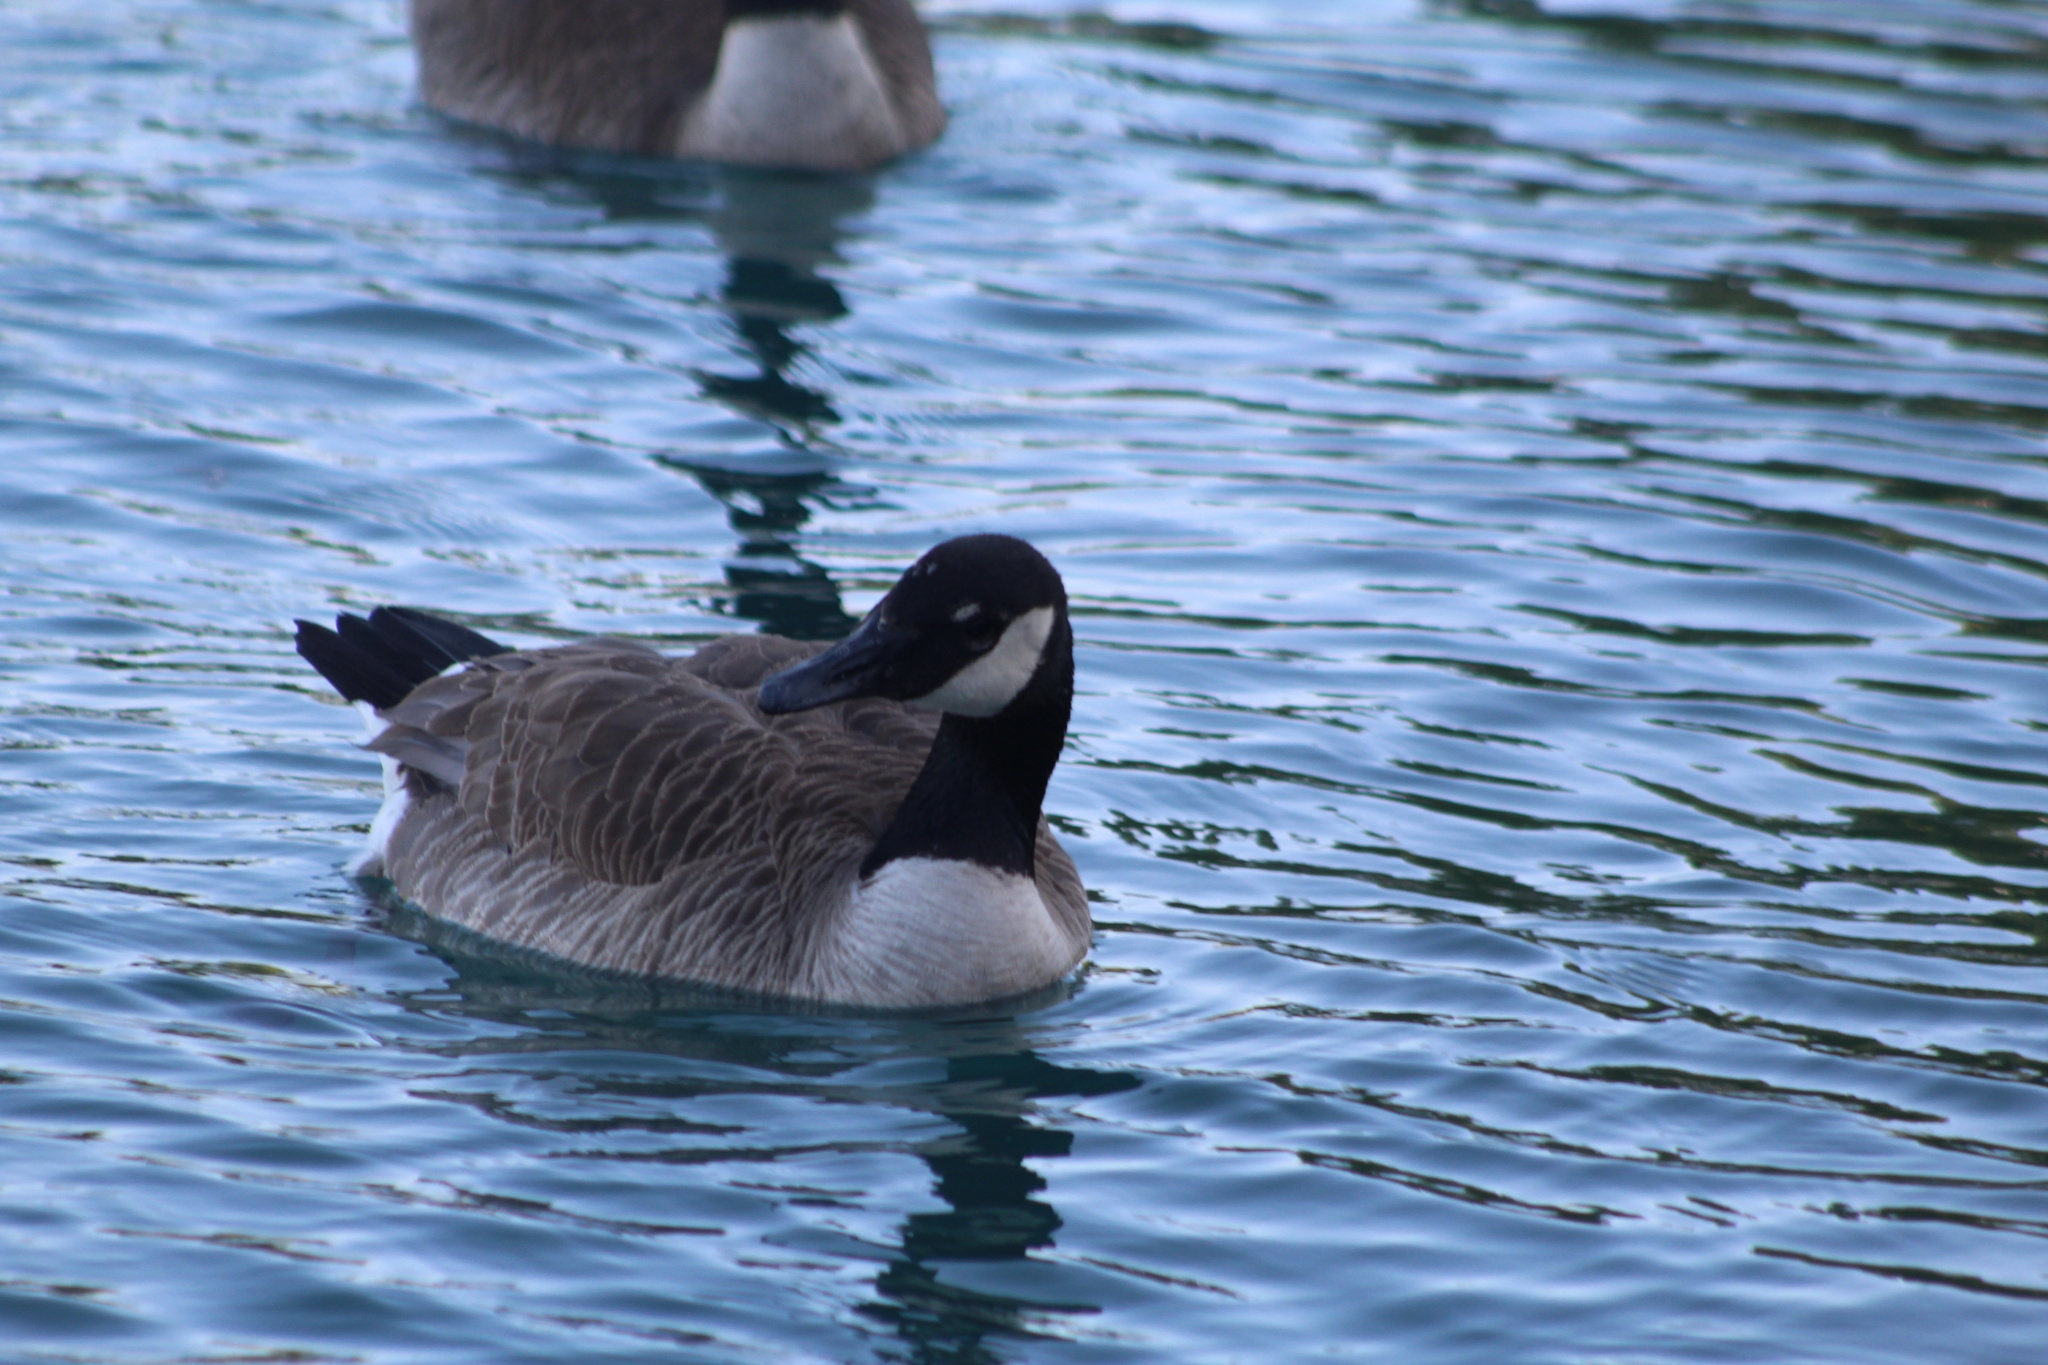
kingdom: Animalia
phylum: Chordata
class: Aves
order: Anseriformes
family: Anatidae
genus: Branta
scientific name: Branta canadensis
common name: Canada goose
